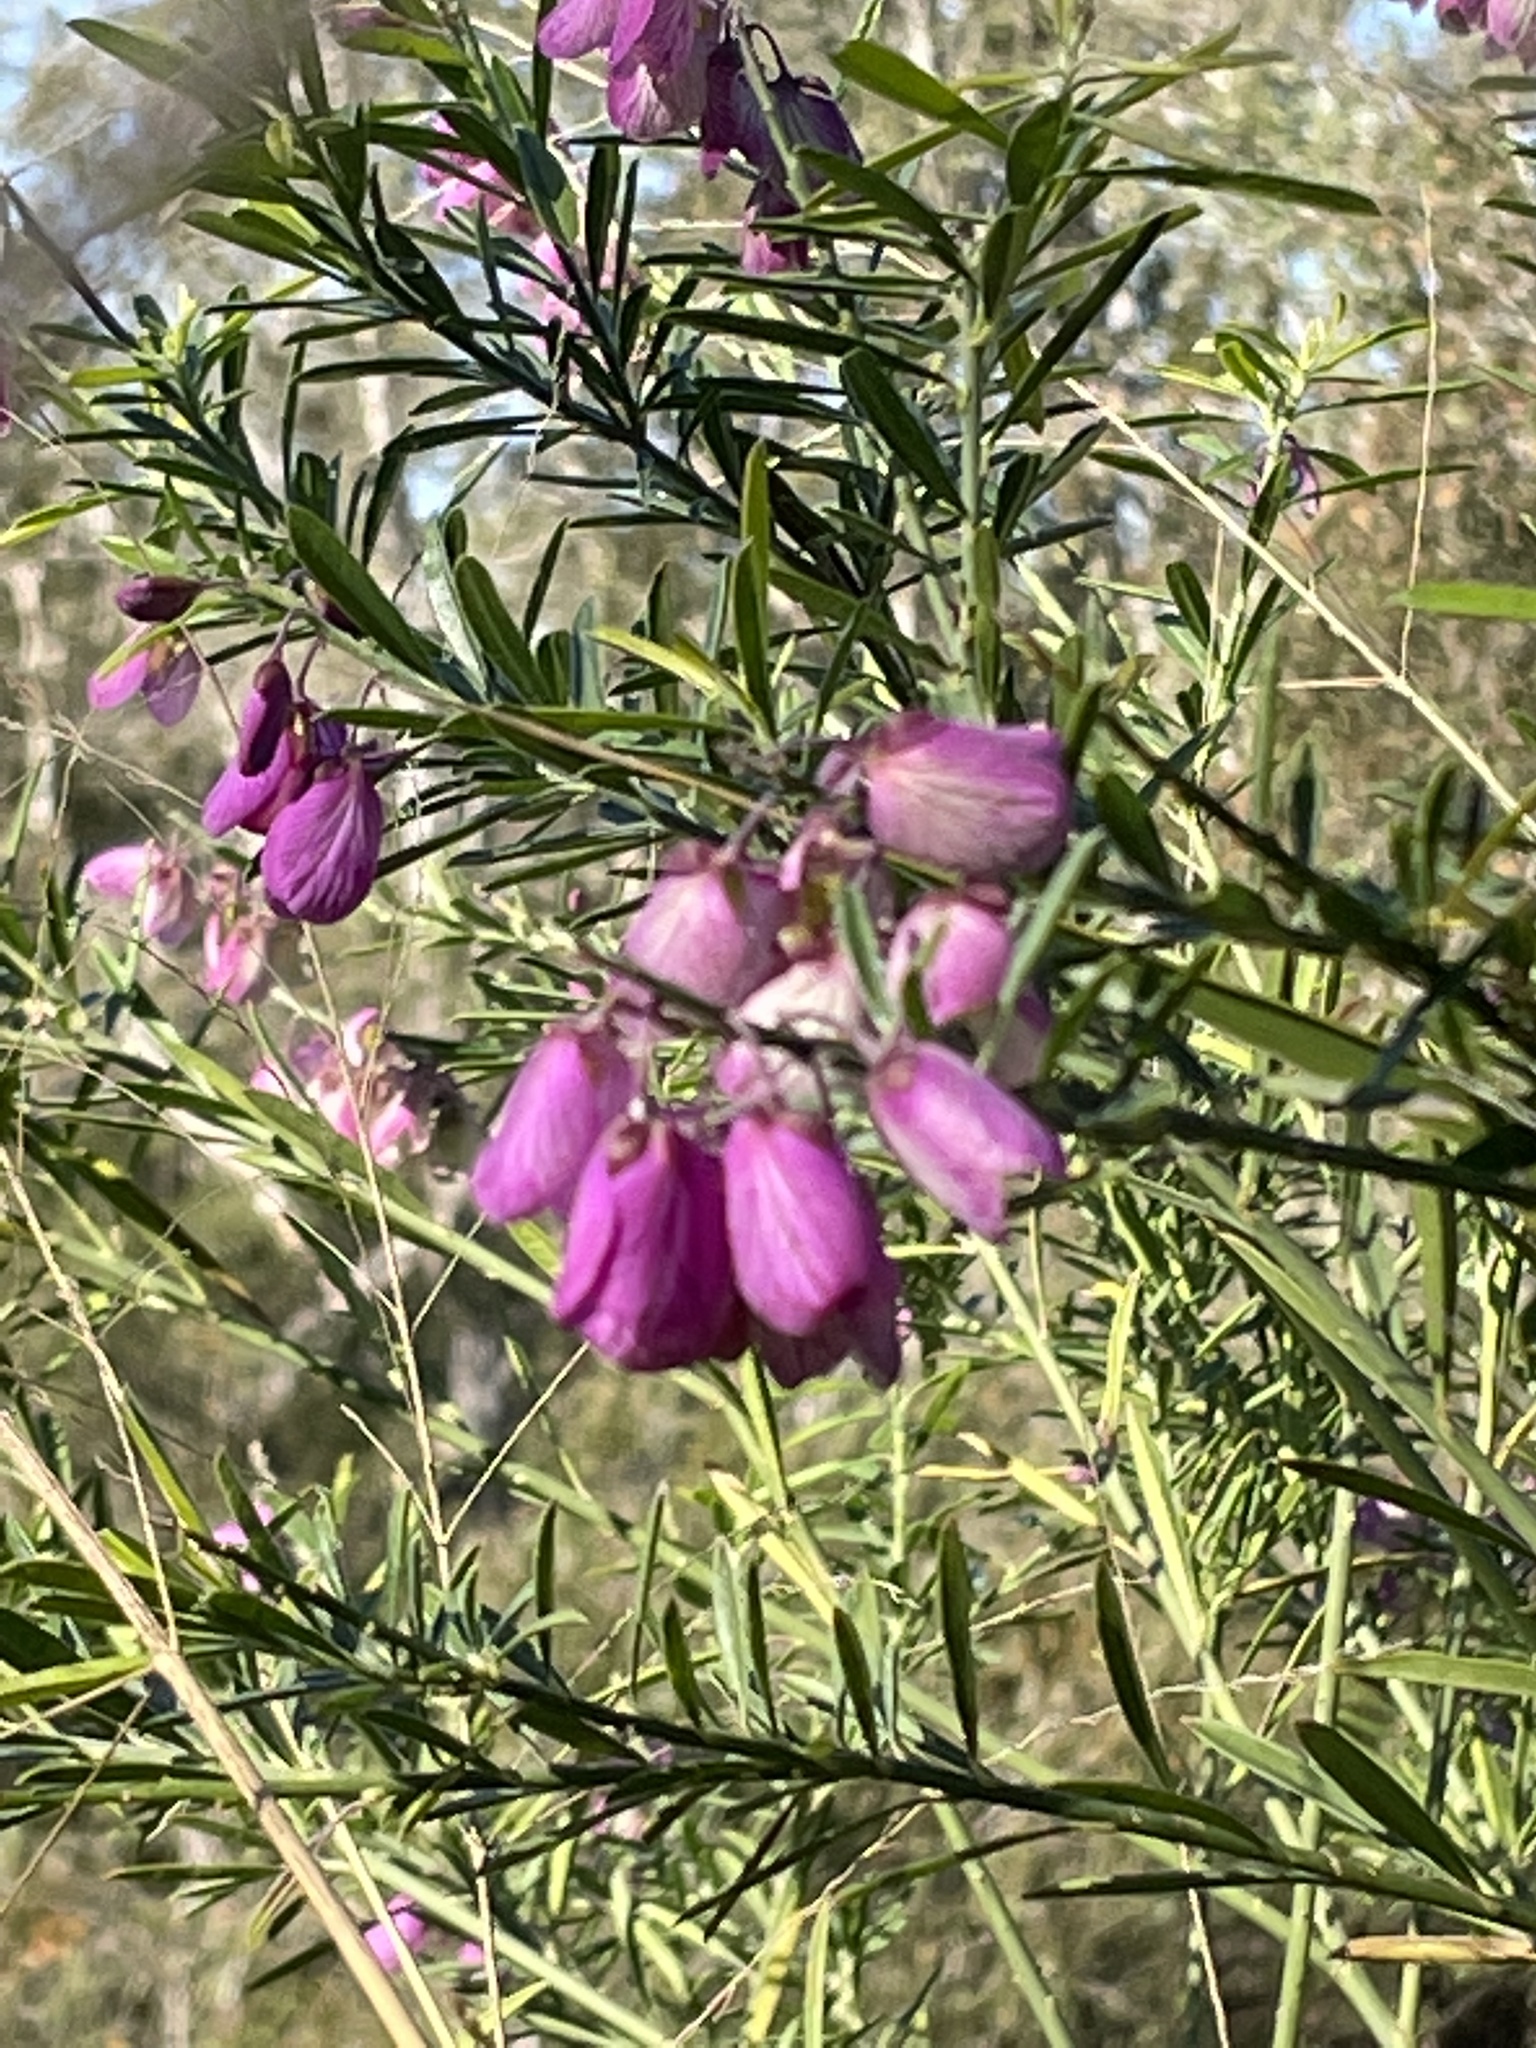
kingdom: Plantae
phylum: Tracheophyta
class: Magnoliopsida
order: Fabales
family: Polygalaceae
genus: Polygala
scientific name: Polygala virgata
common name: Milkwort
